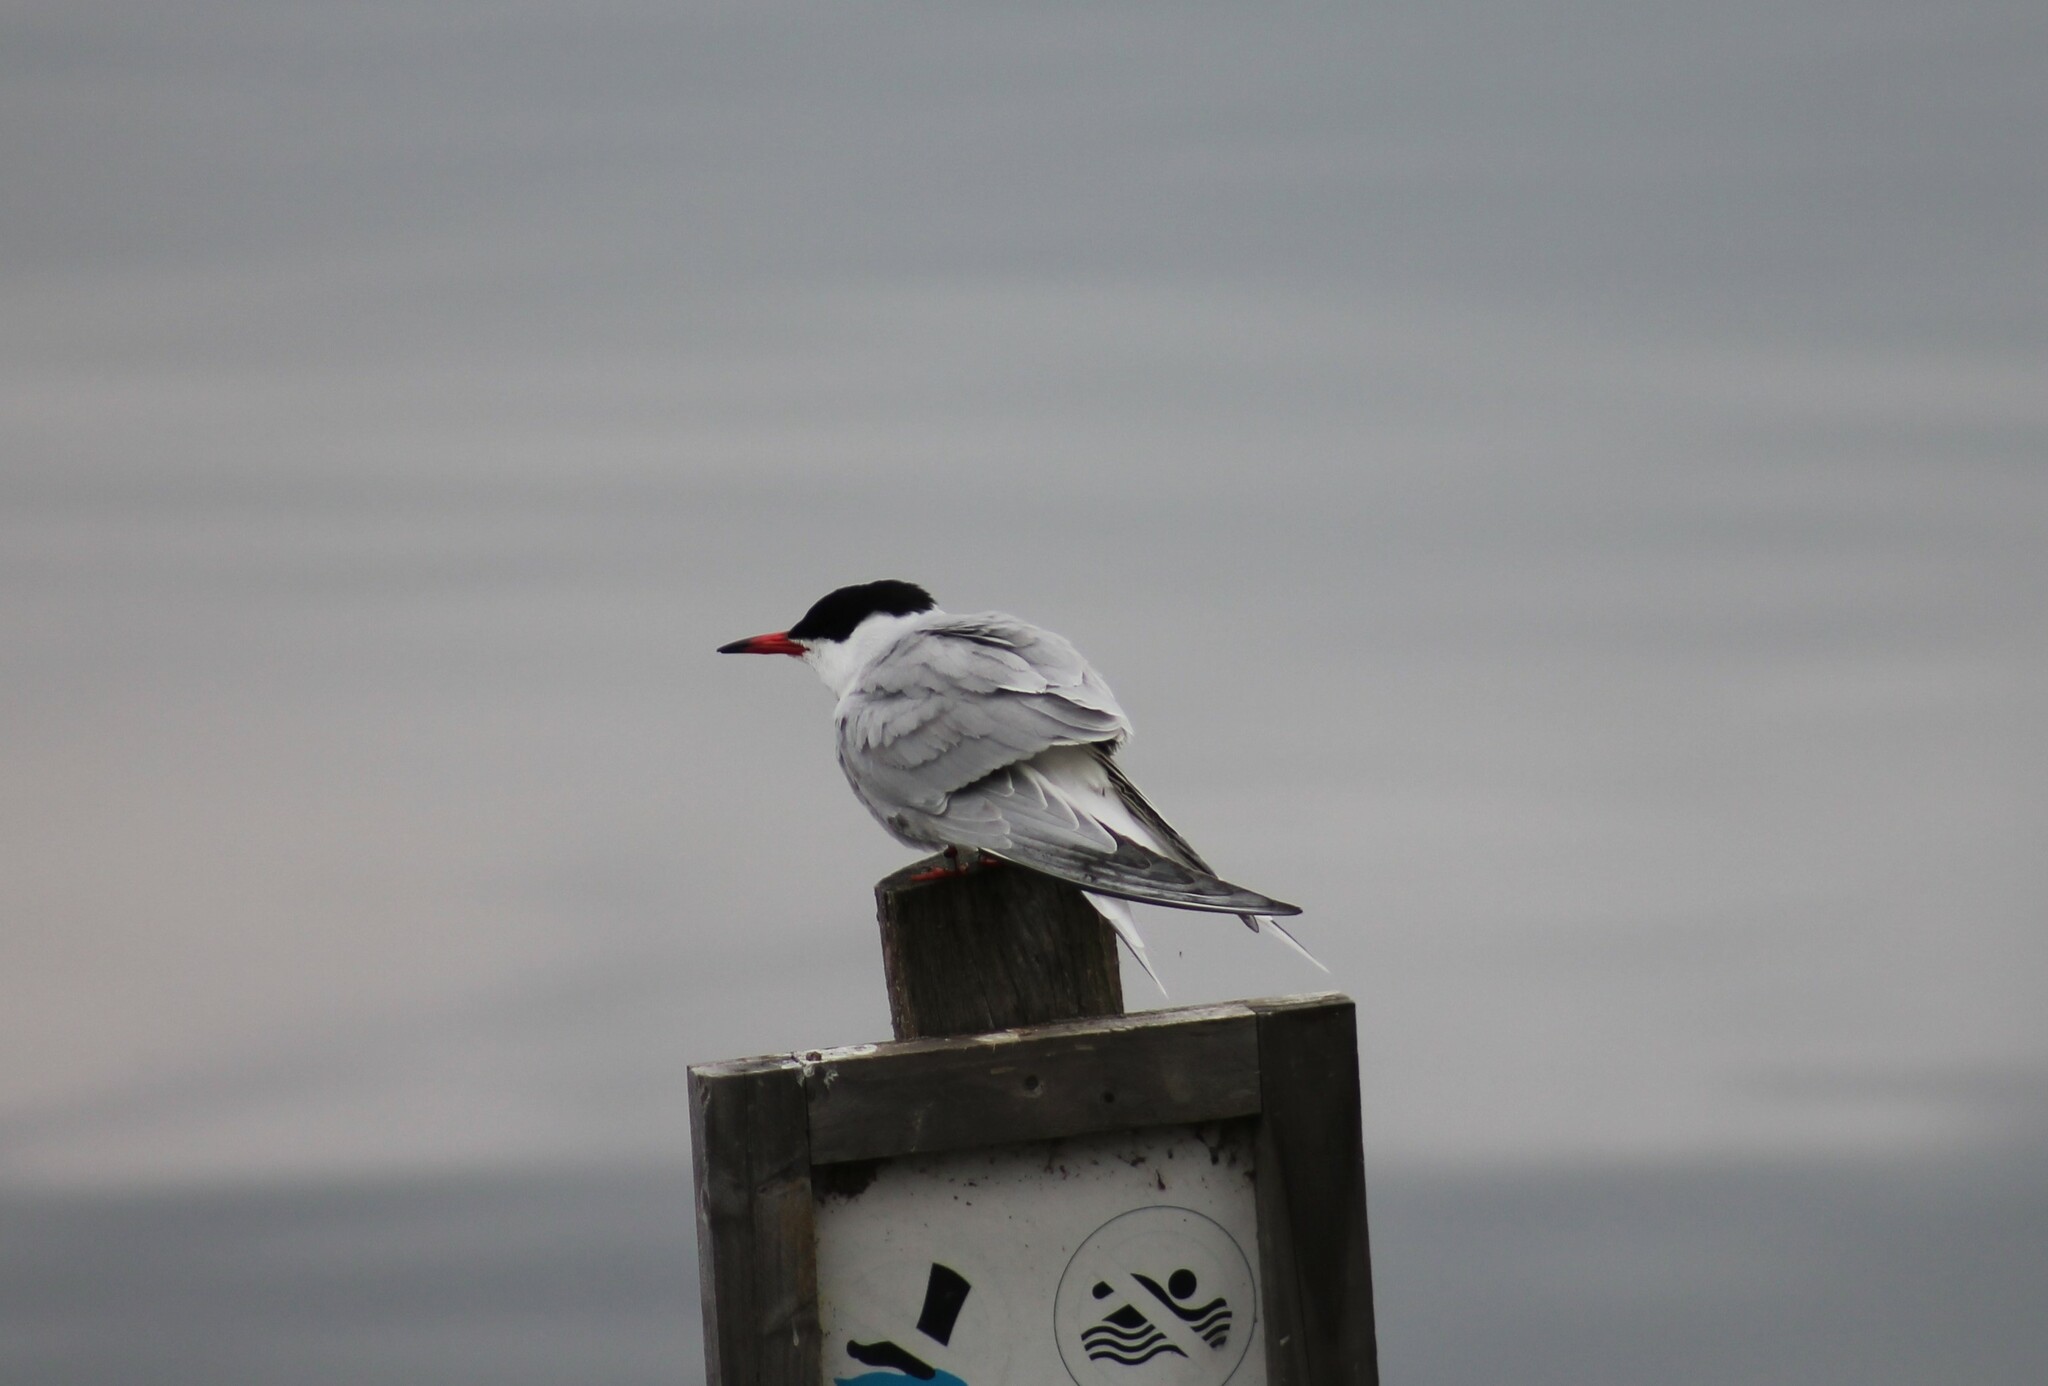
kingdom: Animalia
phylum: Chordata
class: Aves
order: Charadriiformes
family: Laridae
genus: Sterna
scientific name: Sterna hirundo
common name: Common tern
